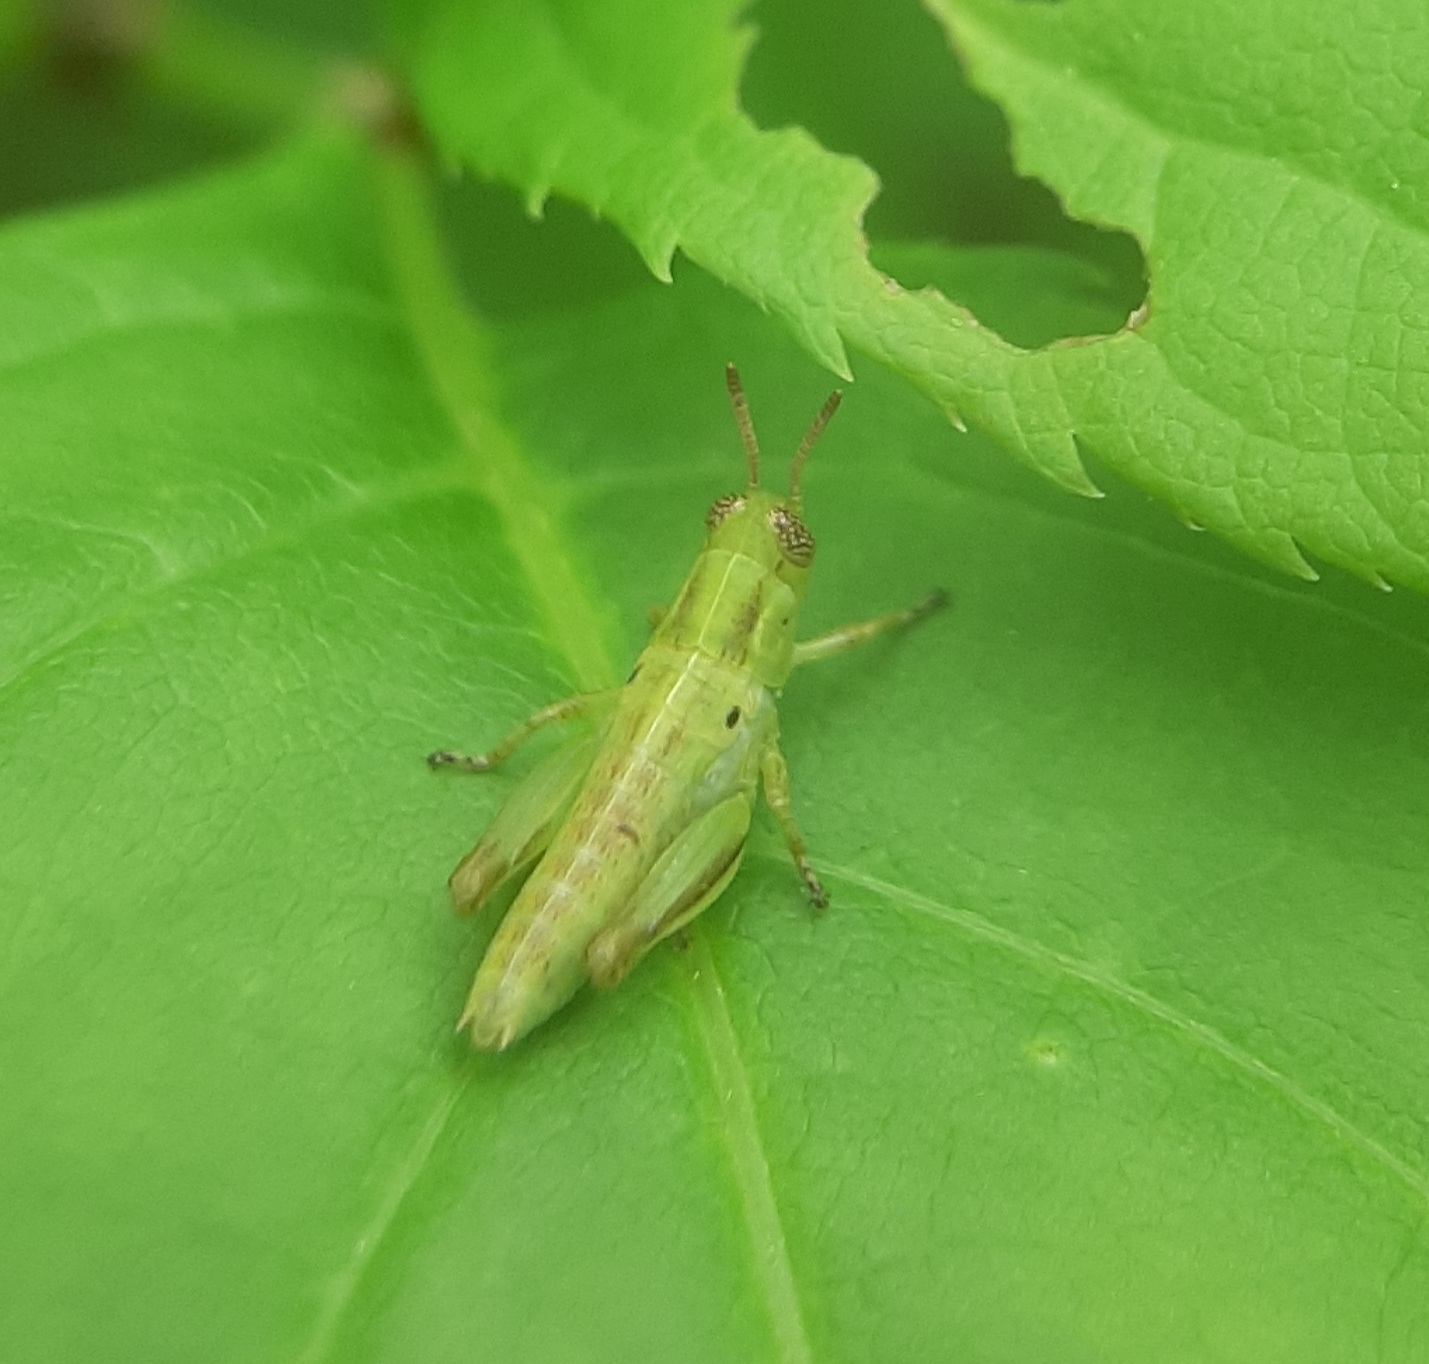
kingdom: Animalia
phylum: Arthropoda
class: Insecta
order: Orthoptera
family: Acrididae
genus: Melanoplus
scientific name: Melanoplus bivittatus
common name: Two-striped grasshopper
